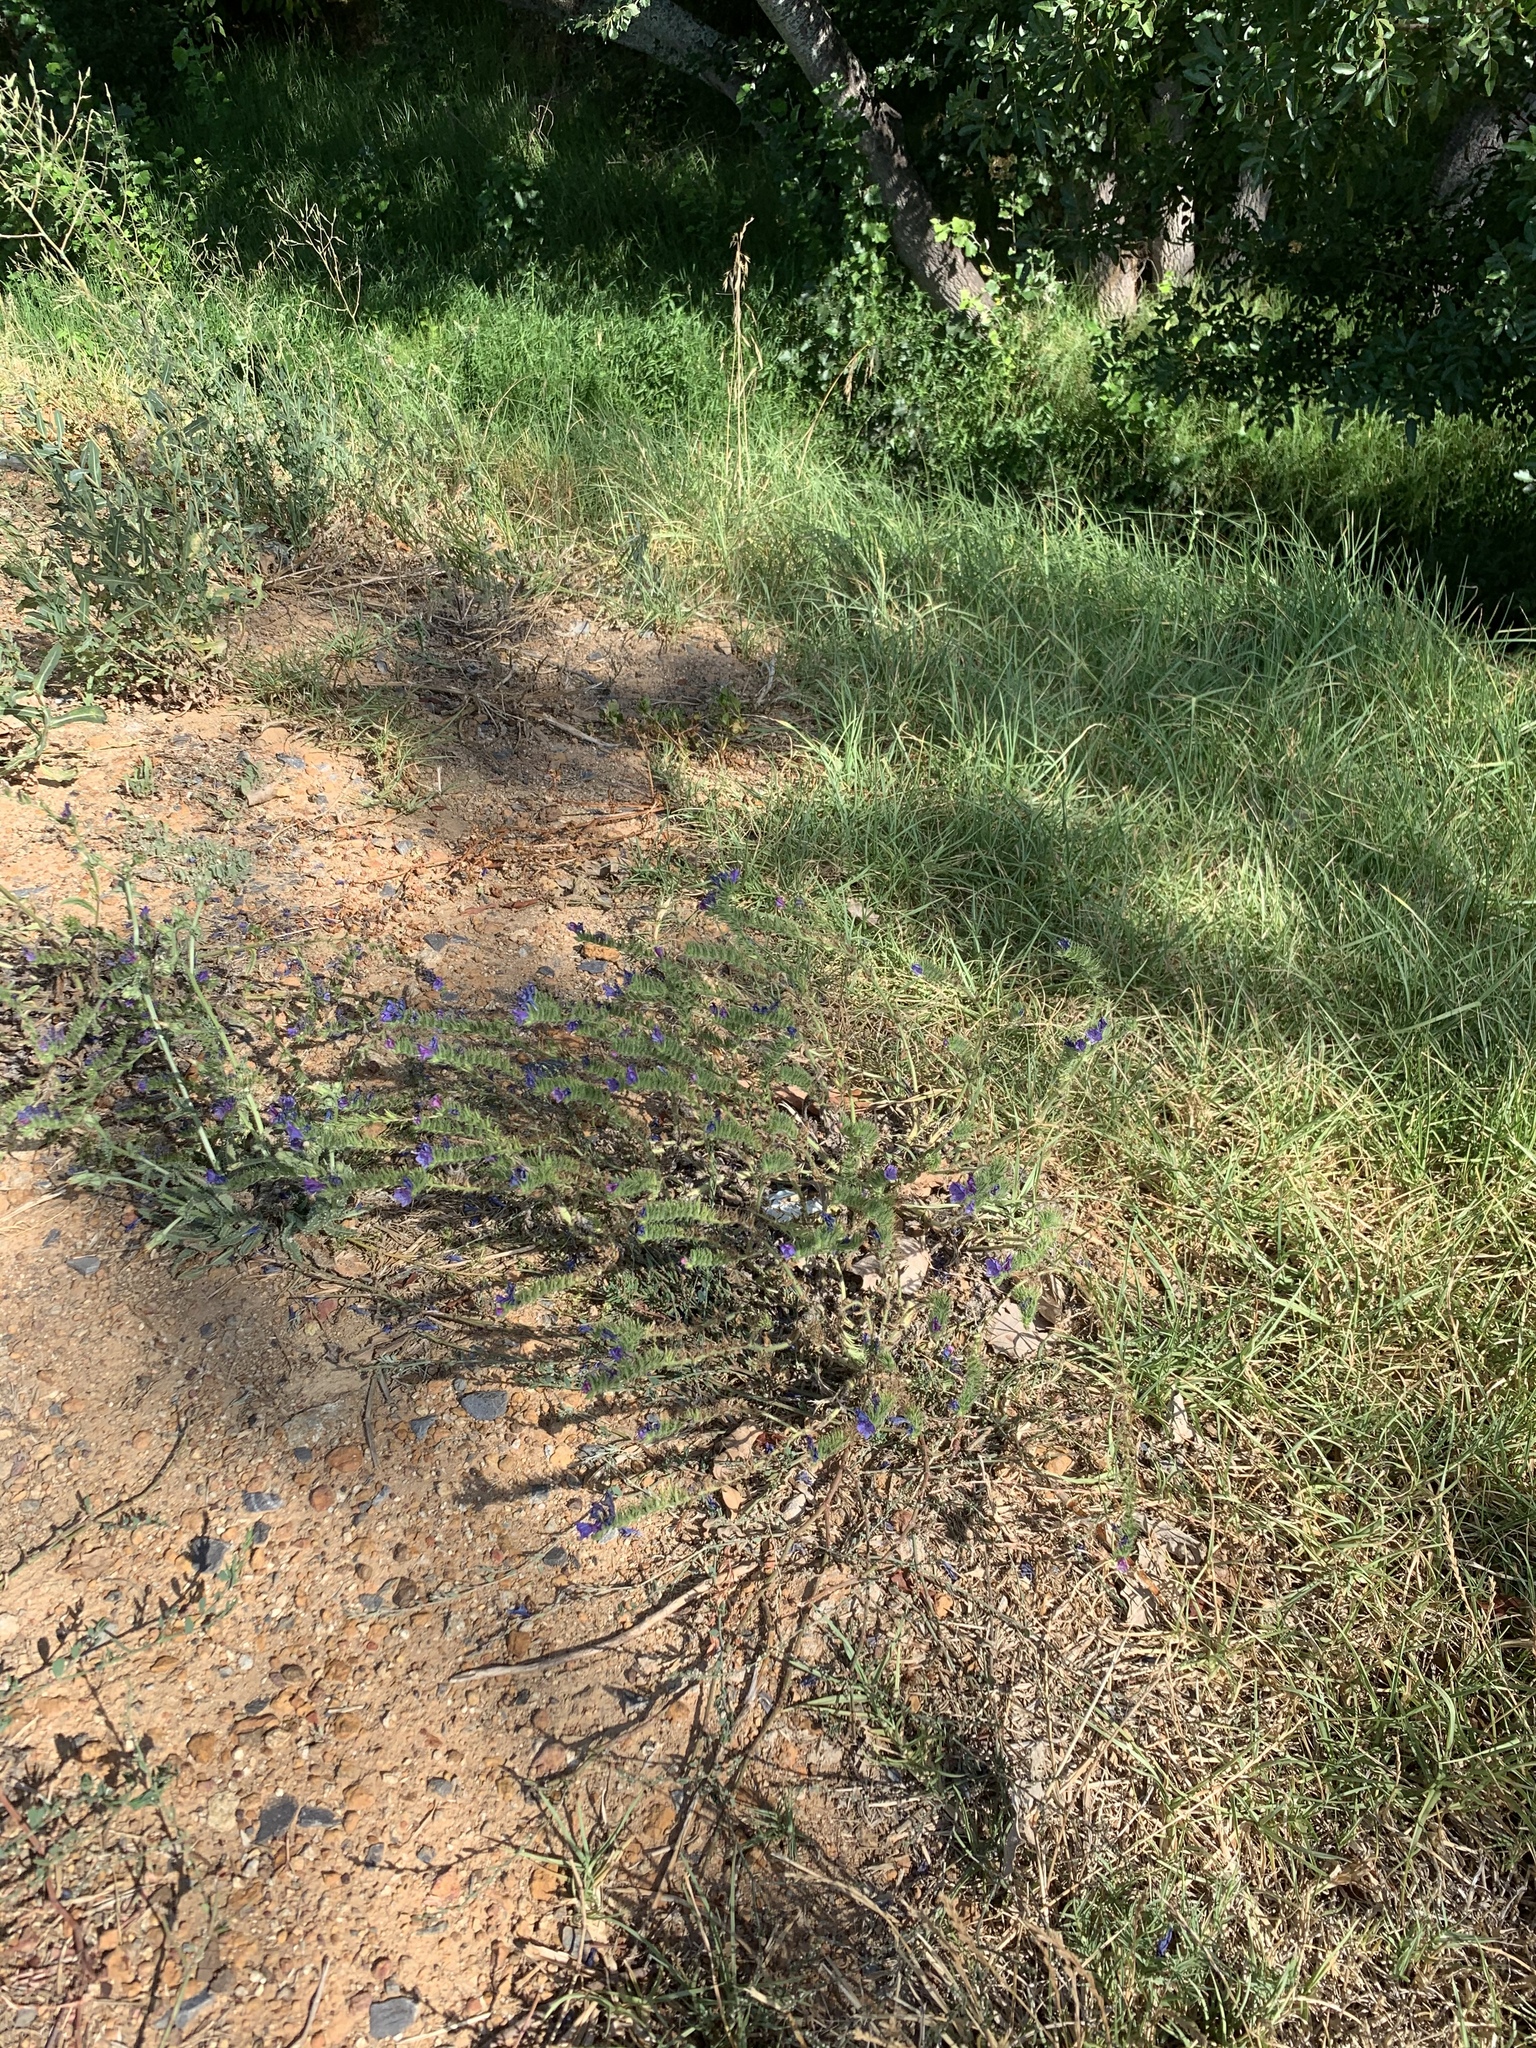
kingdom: Plantae
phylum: Tracheophyta
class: Magnoliopsida
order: Boraginales
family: Boraginaceae
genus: Echium
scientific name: Echium plantagineum
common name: Purple viper's-bugloss
